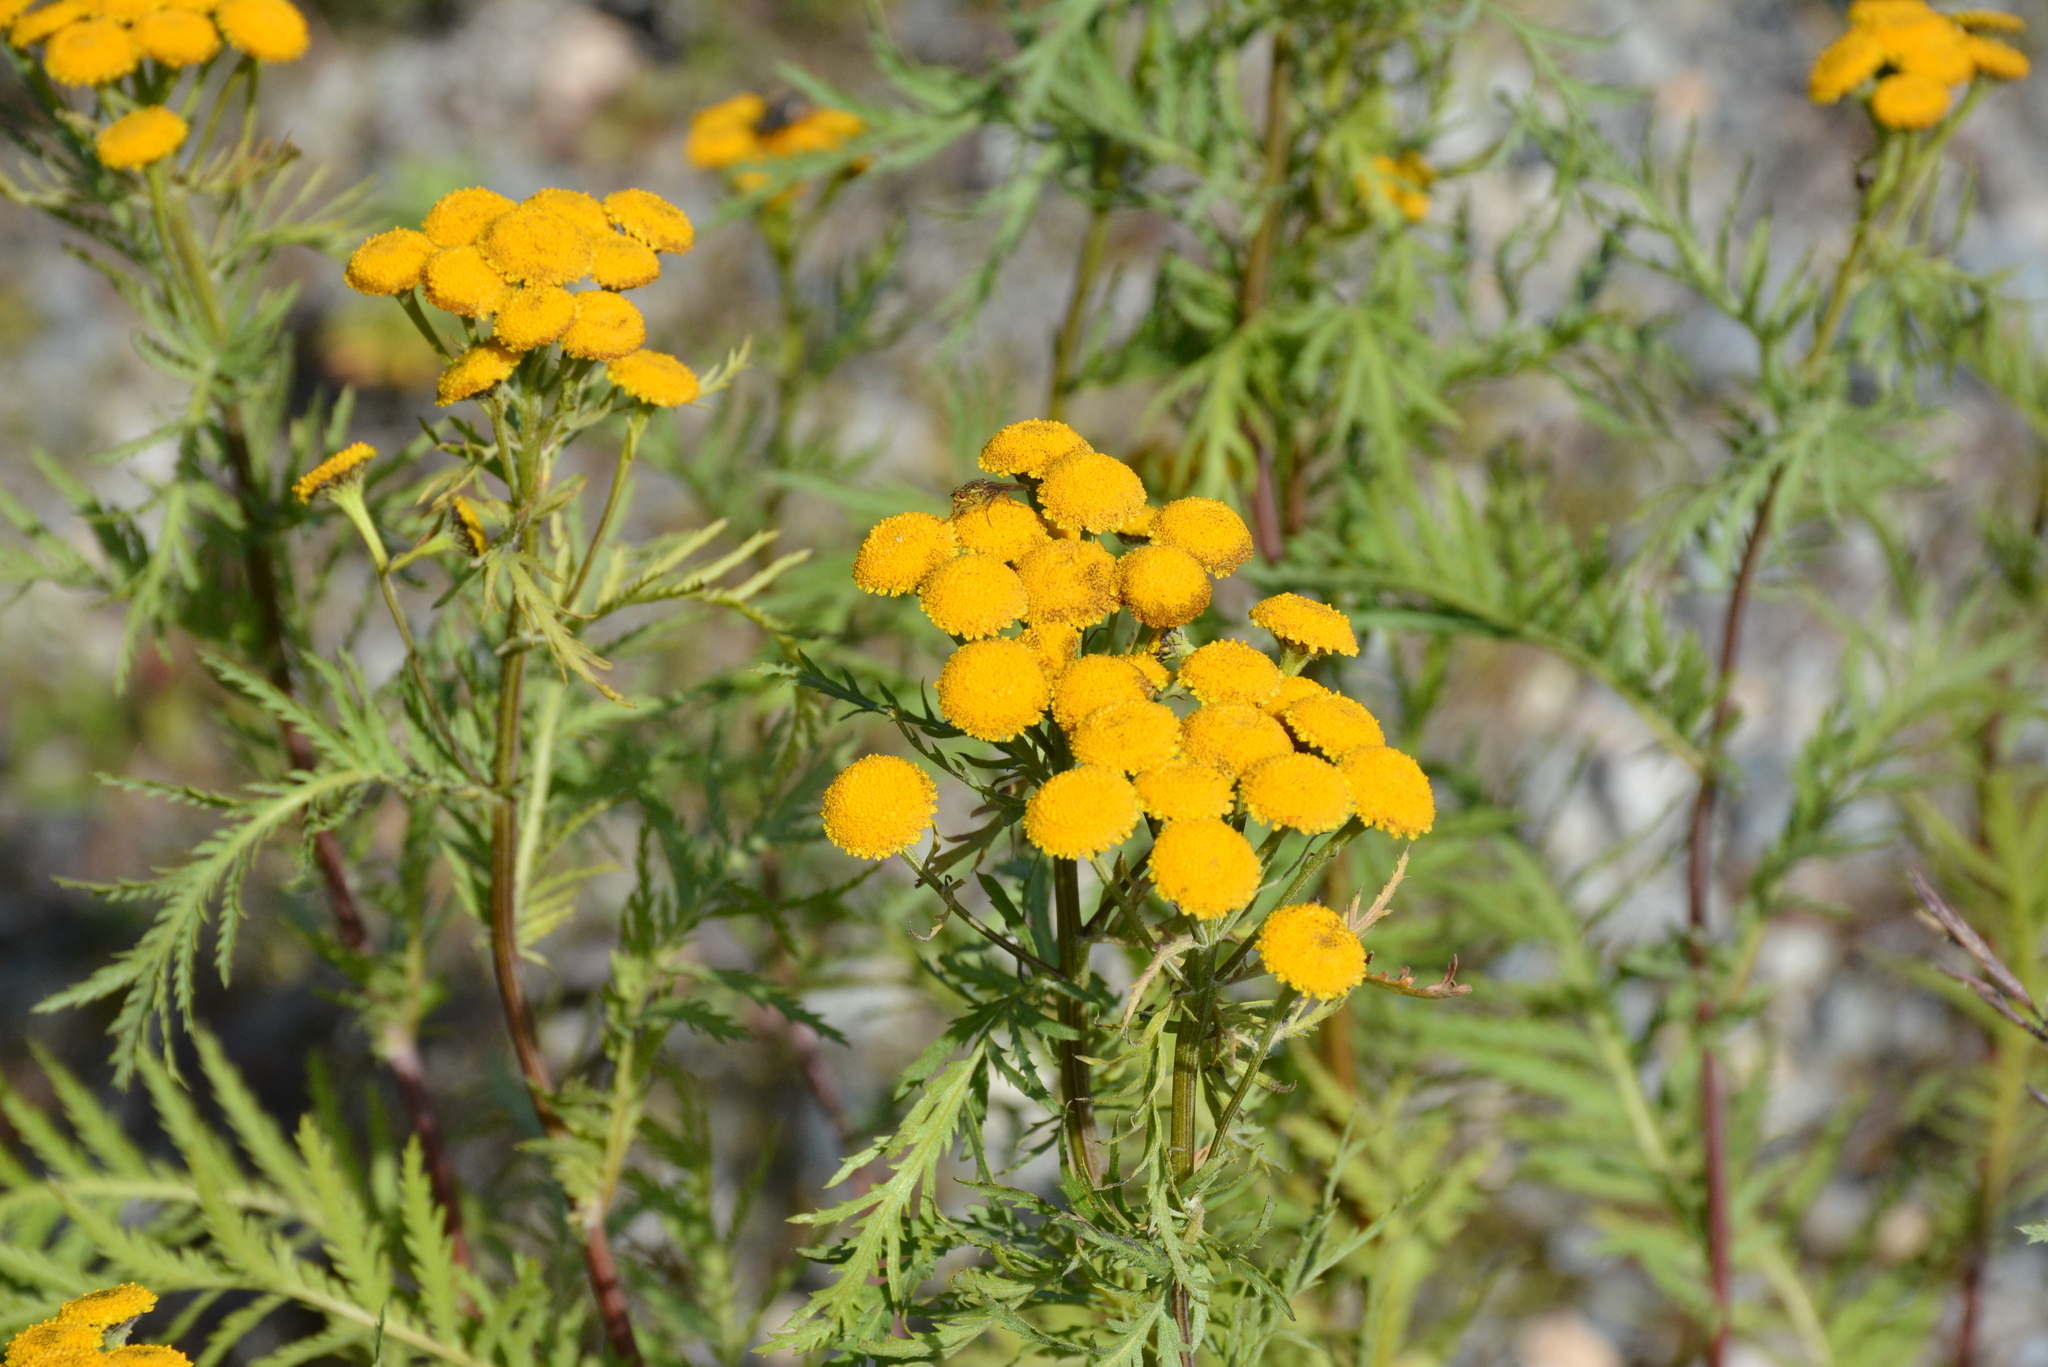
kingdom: Plantae
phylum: Tracheophyta
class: Magnoliopsida
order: Asterales
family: Asteraceae
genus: Tanacetum
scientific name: Tanacetum vulgare
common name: Common tansy
